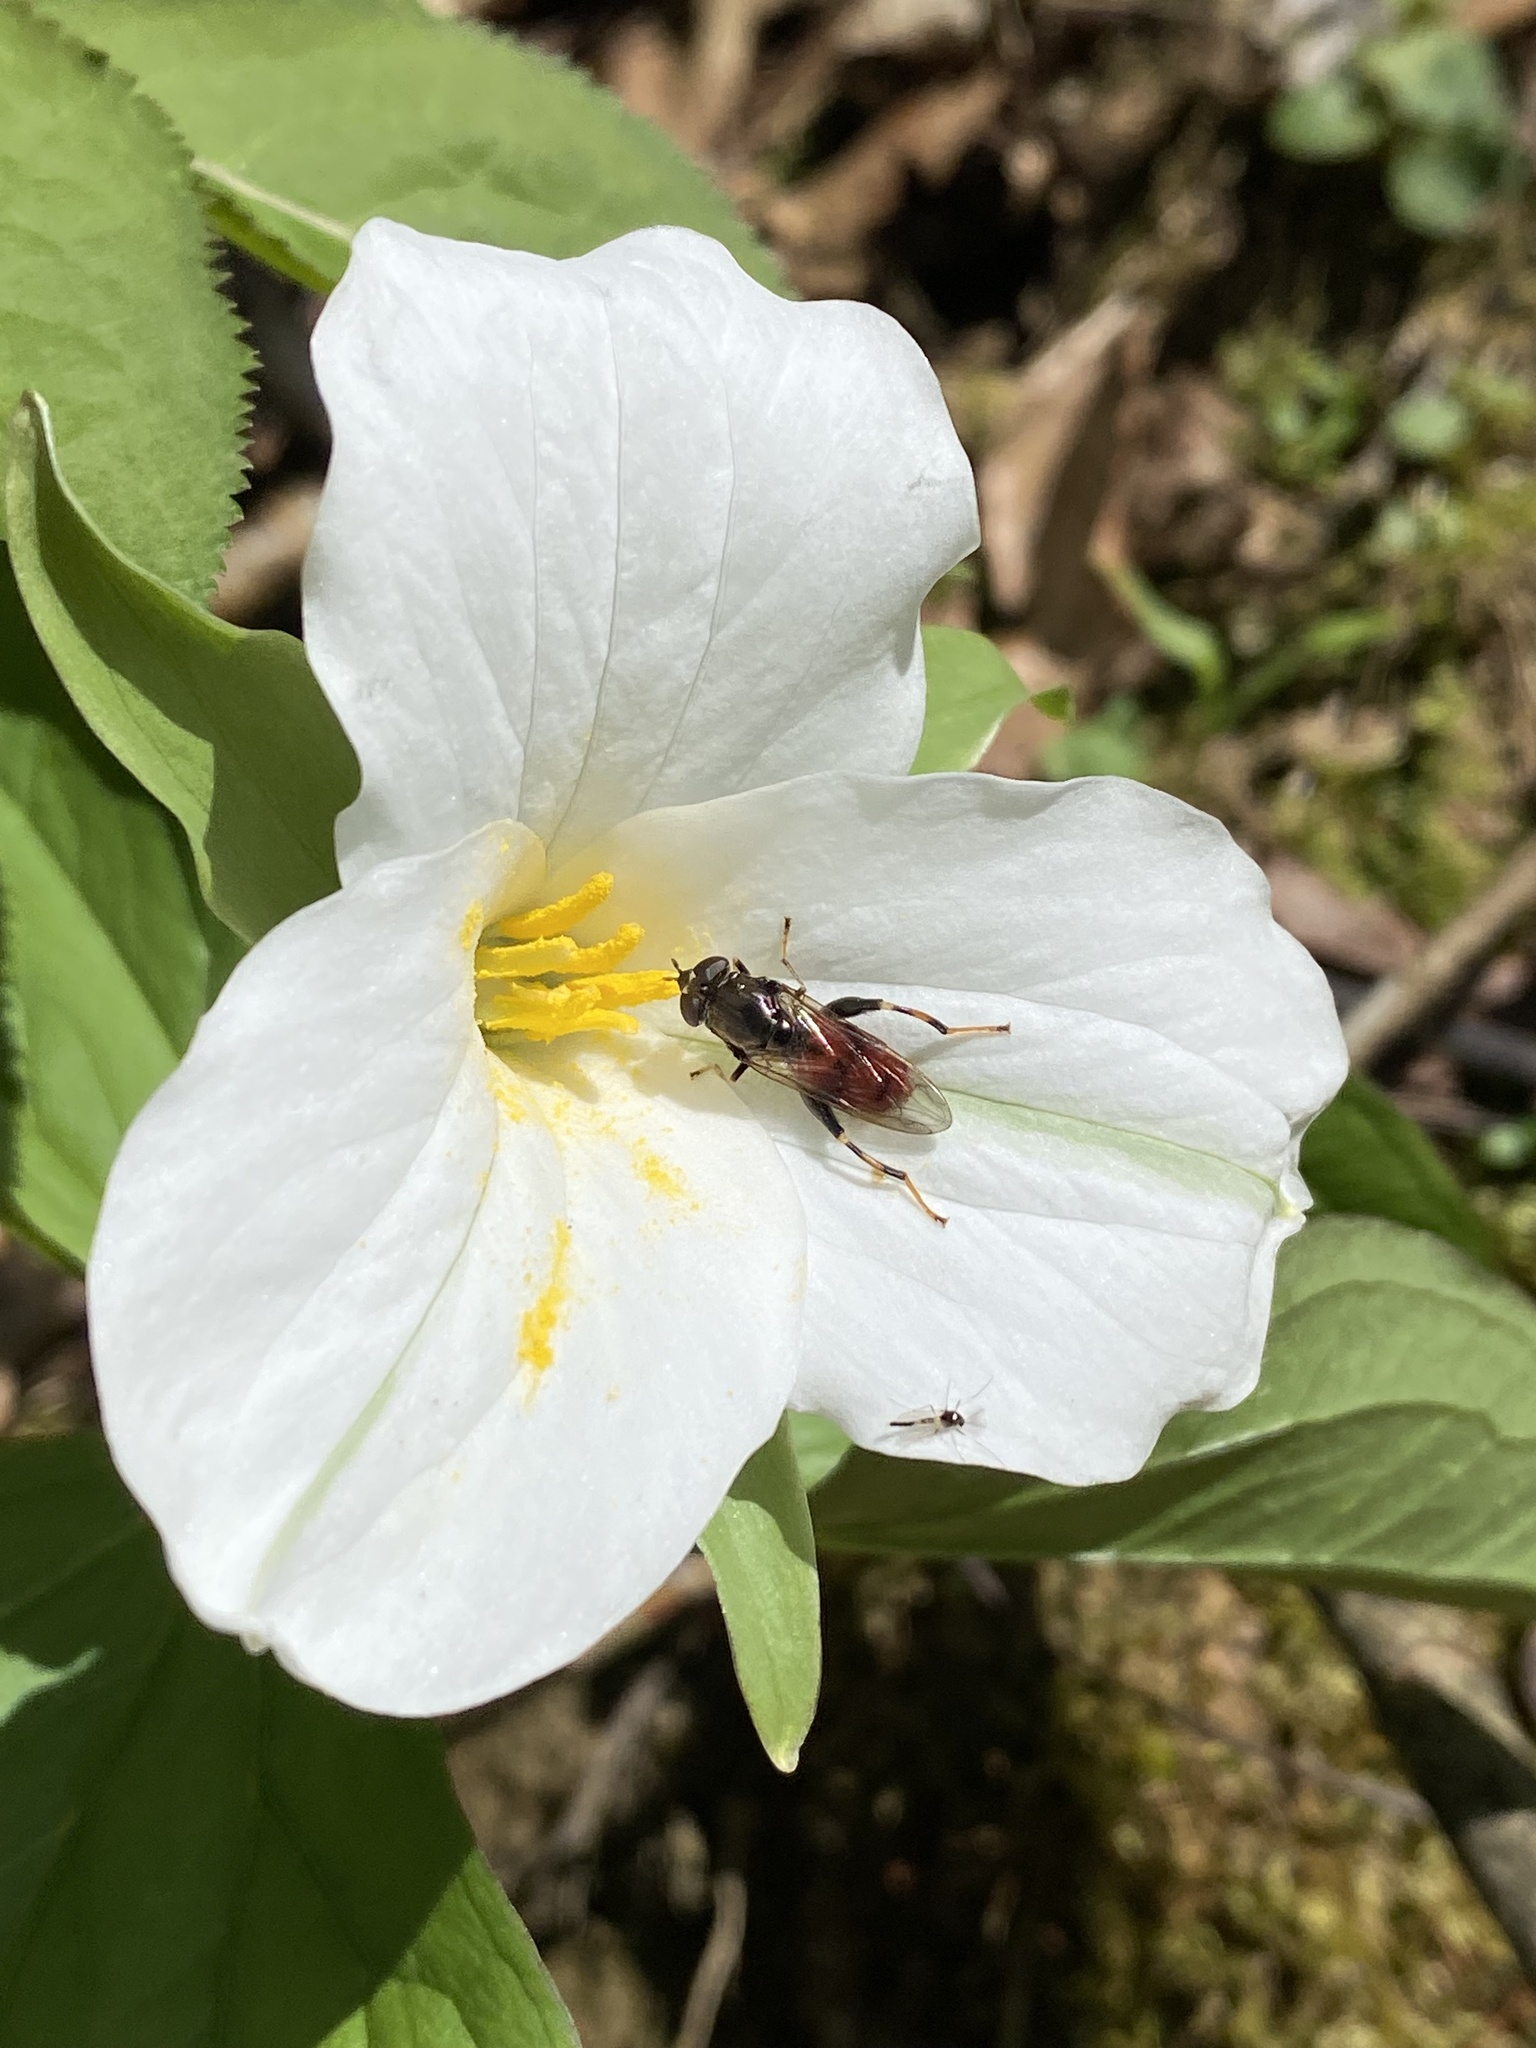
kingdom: Animalia
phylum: Arthropoda
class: Insecta
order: Diptera
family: Syrphidae
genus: Chalcosyrphus
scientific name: Chalcosyrphus libo
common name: Long-haired forest fly
